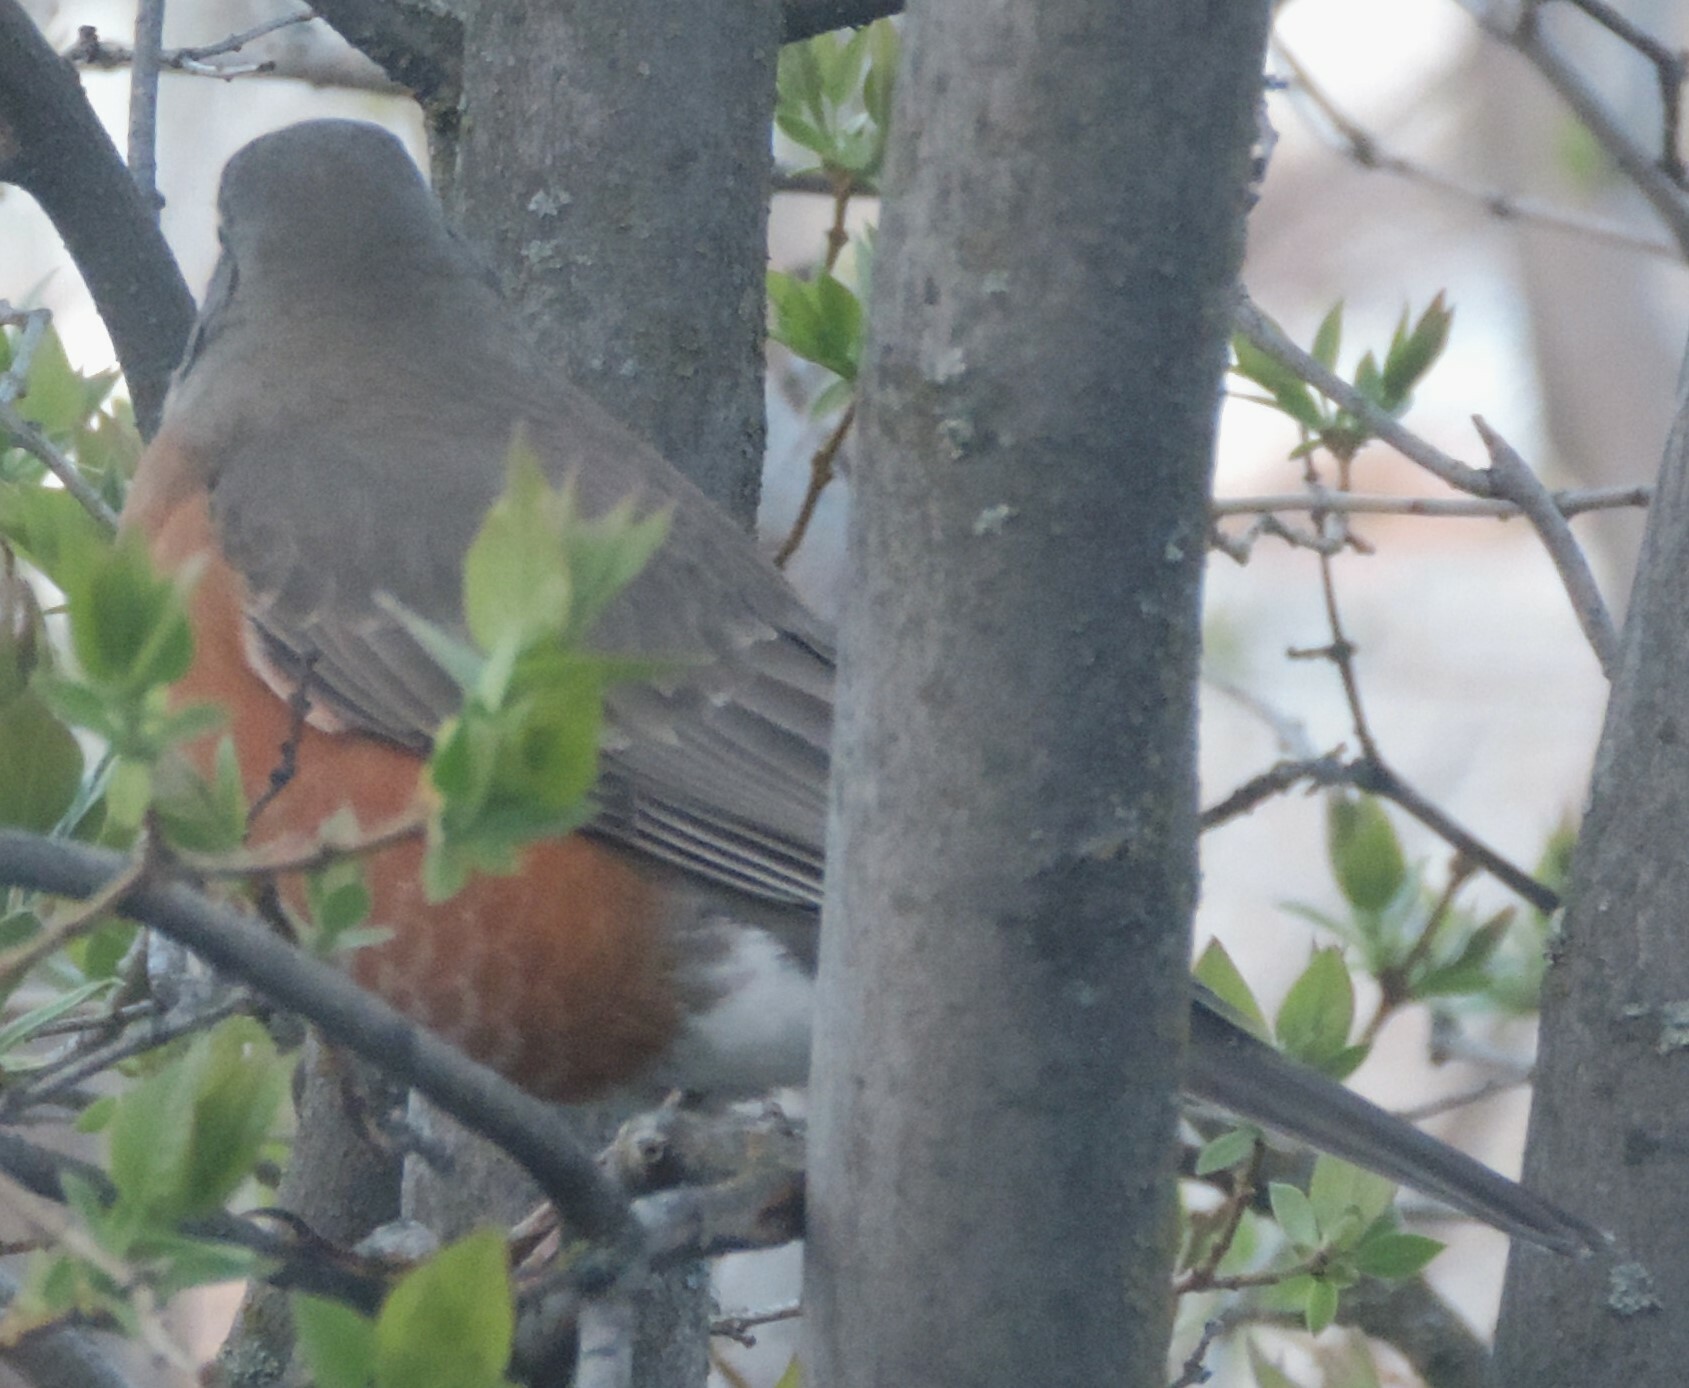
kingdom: Animalia
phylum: Chordata
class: Aves
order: Passeriformes
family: Turdidae
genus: Turdus
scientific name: Turdus migratorius
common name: American robin
